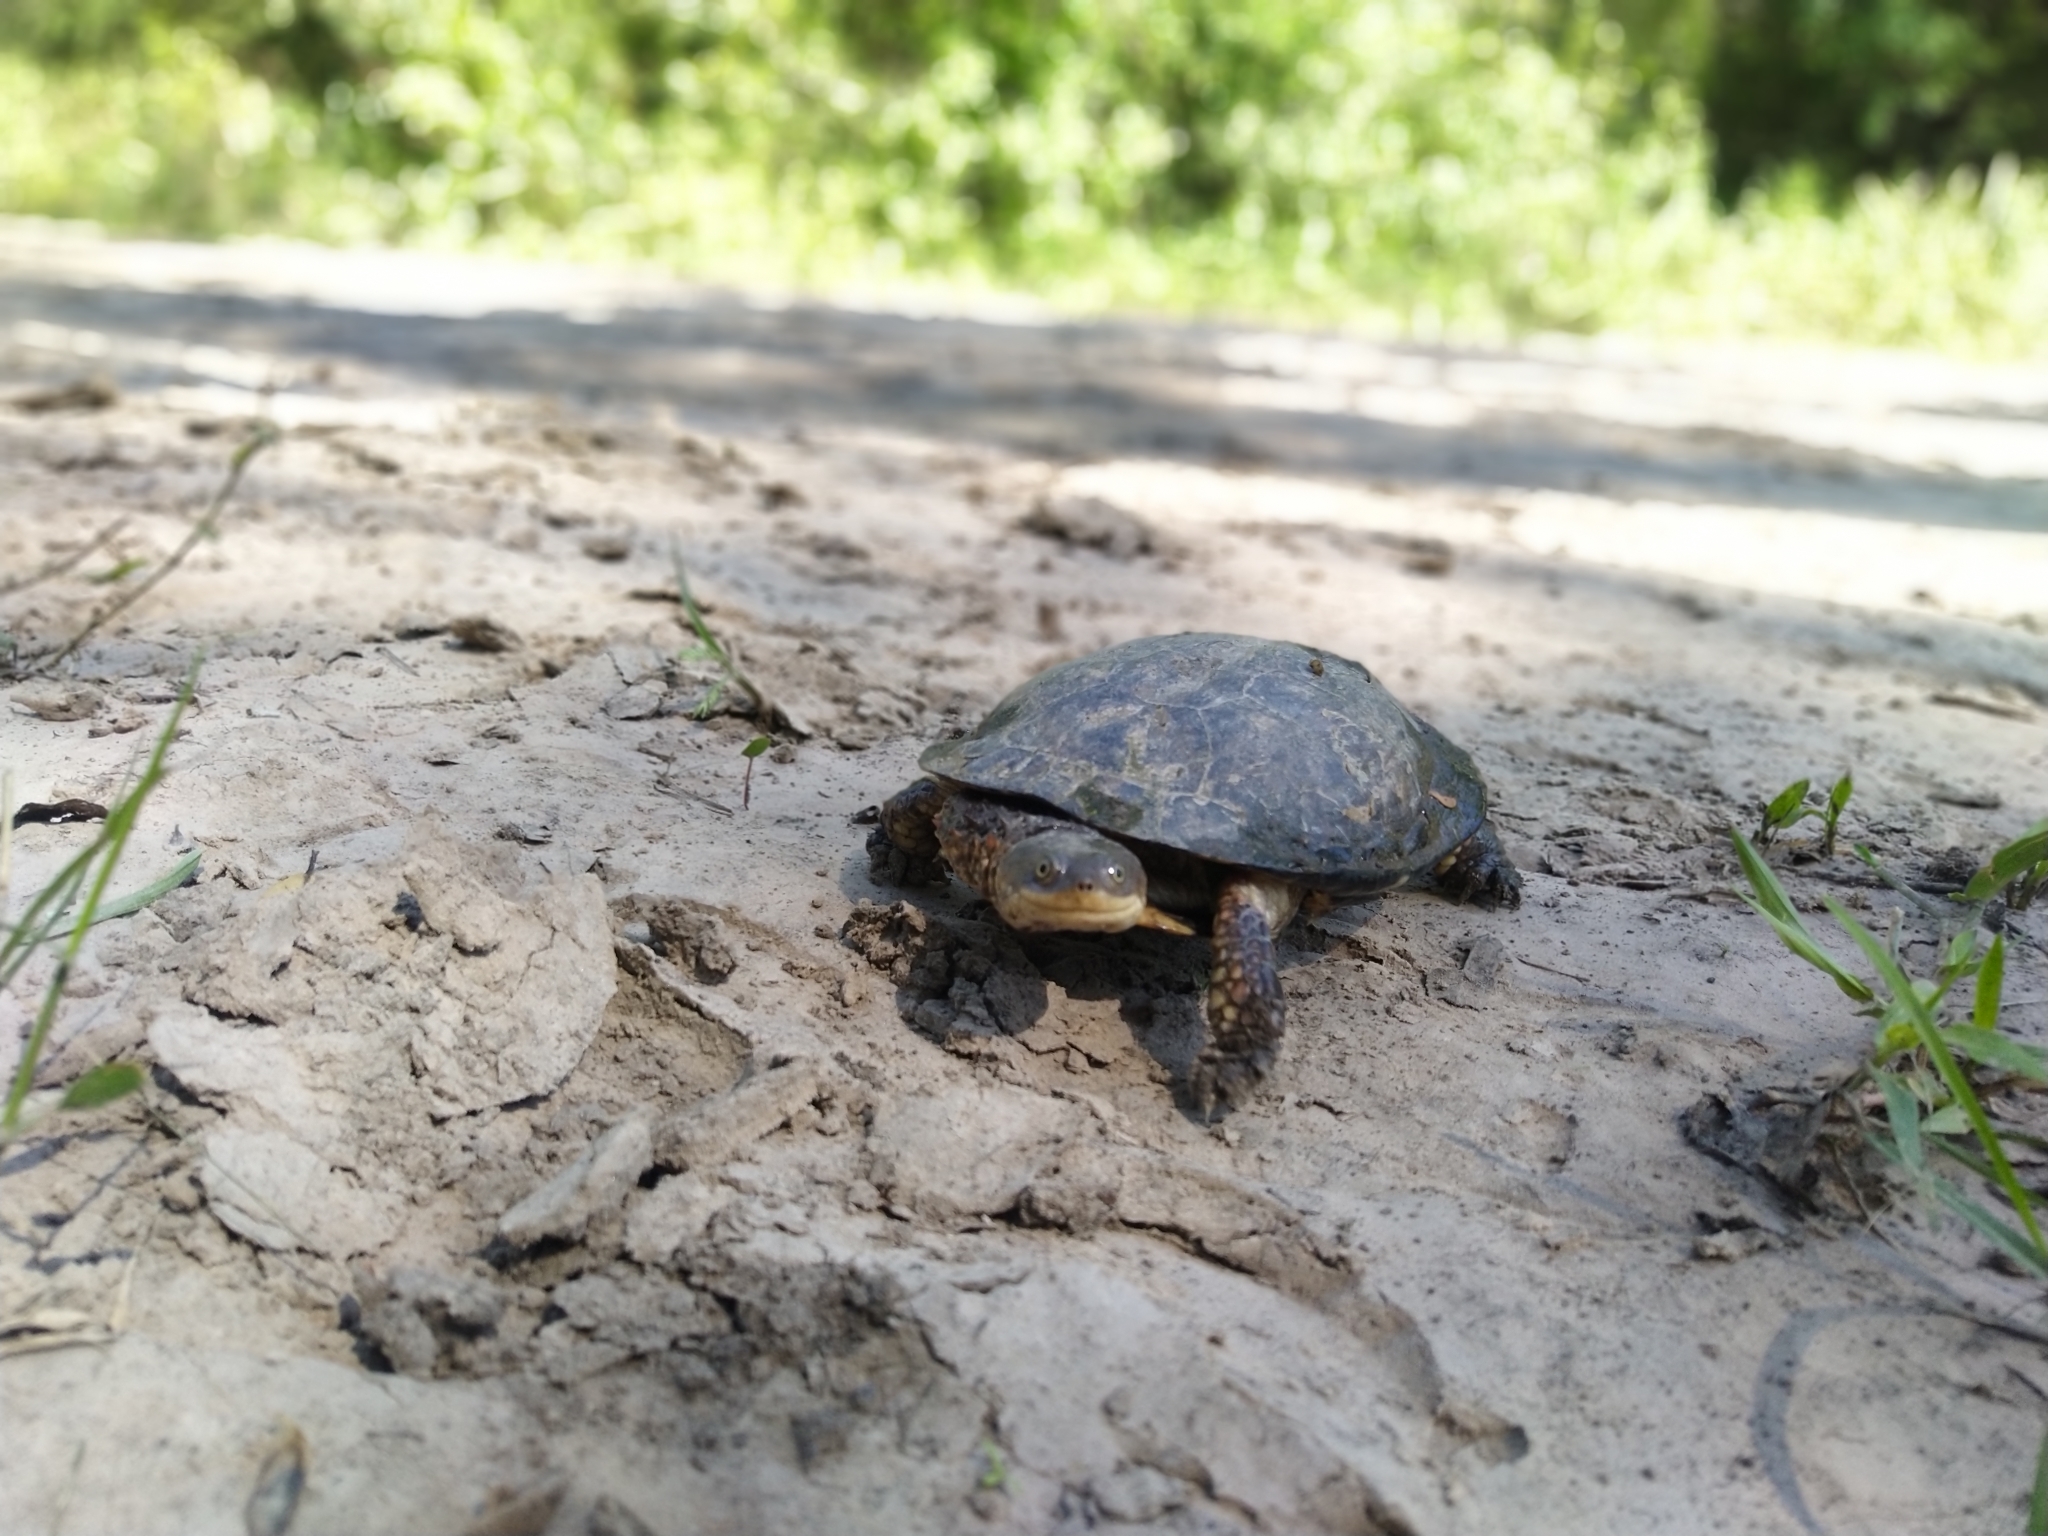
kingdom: Animalia
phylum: Chordata
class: Testudines
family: Chelidae
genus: Acanthochelys
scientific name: Acanthochelys pallidipectoris
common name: Chaco side-necked turtle
